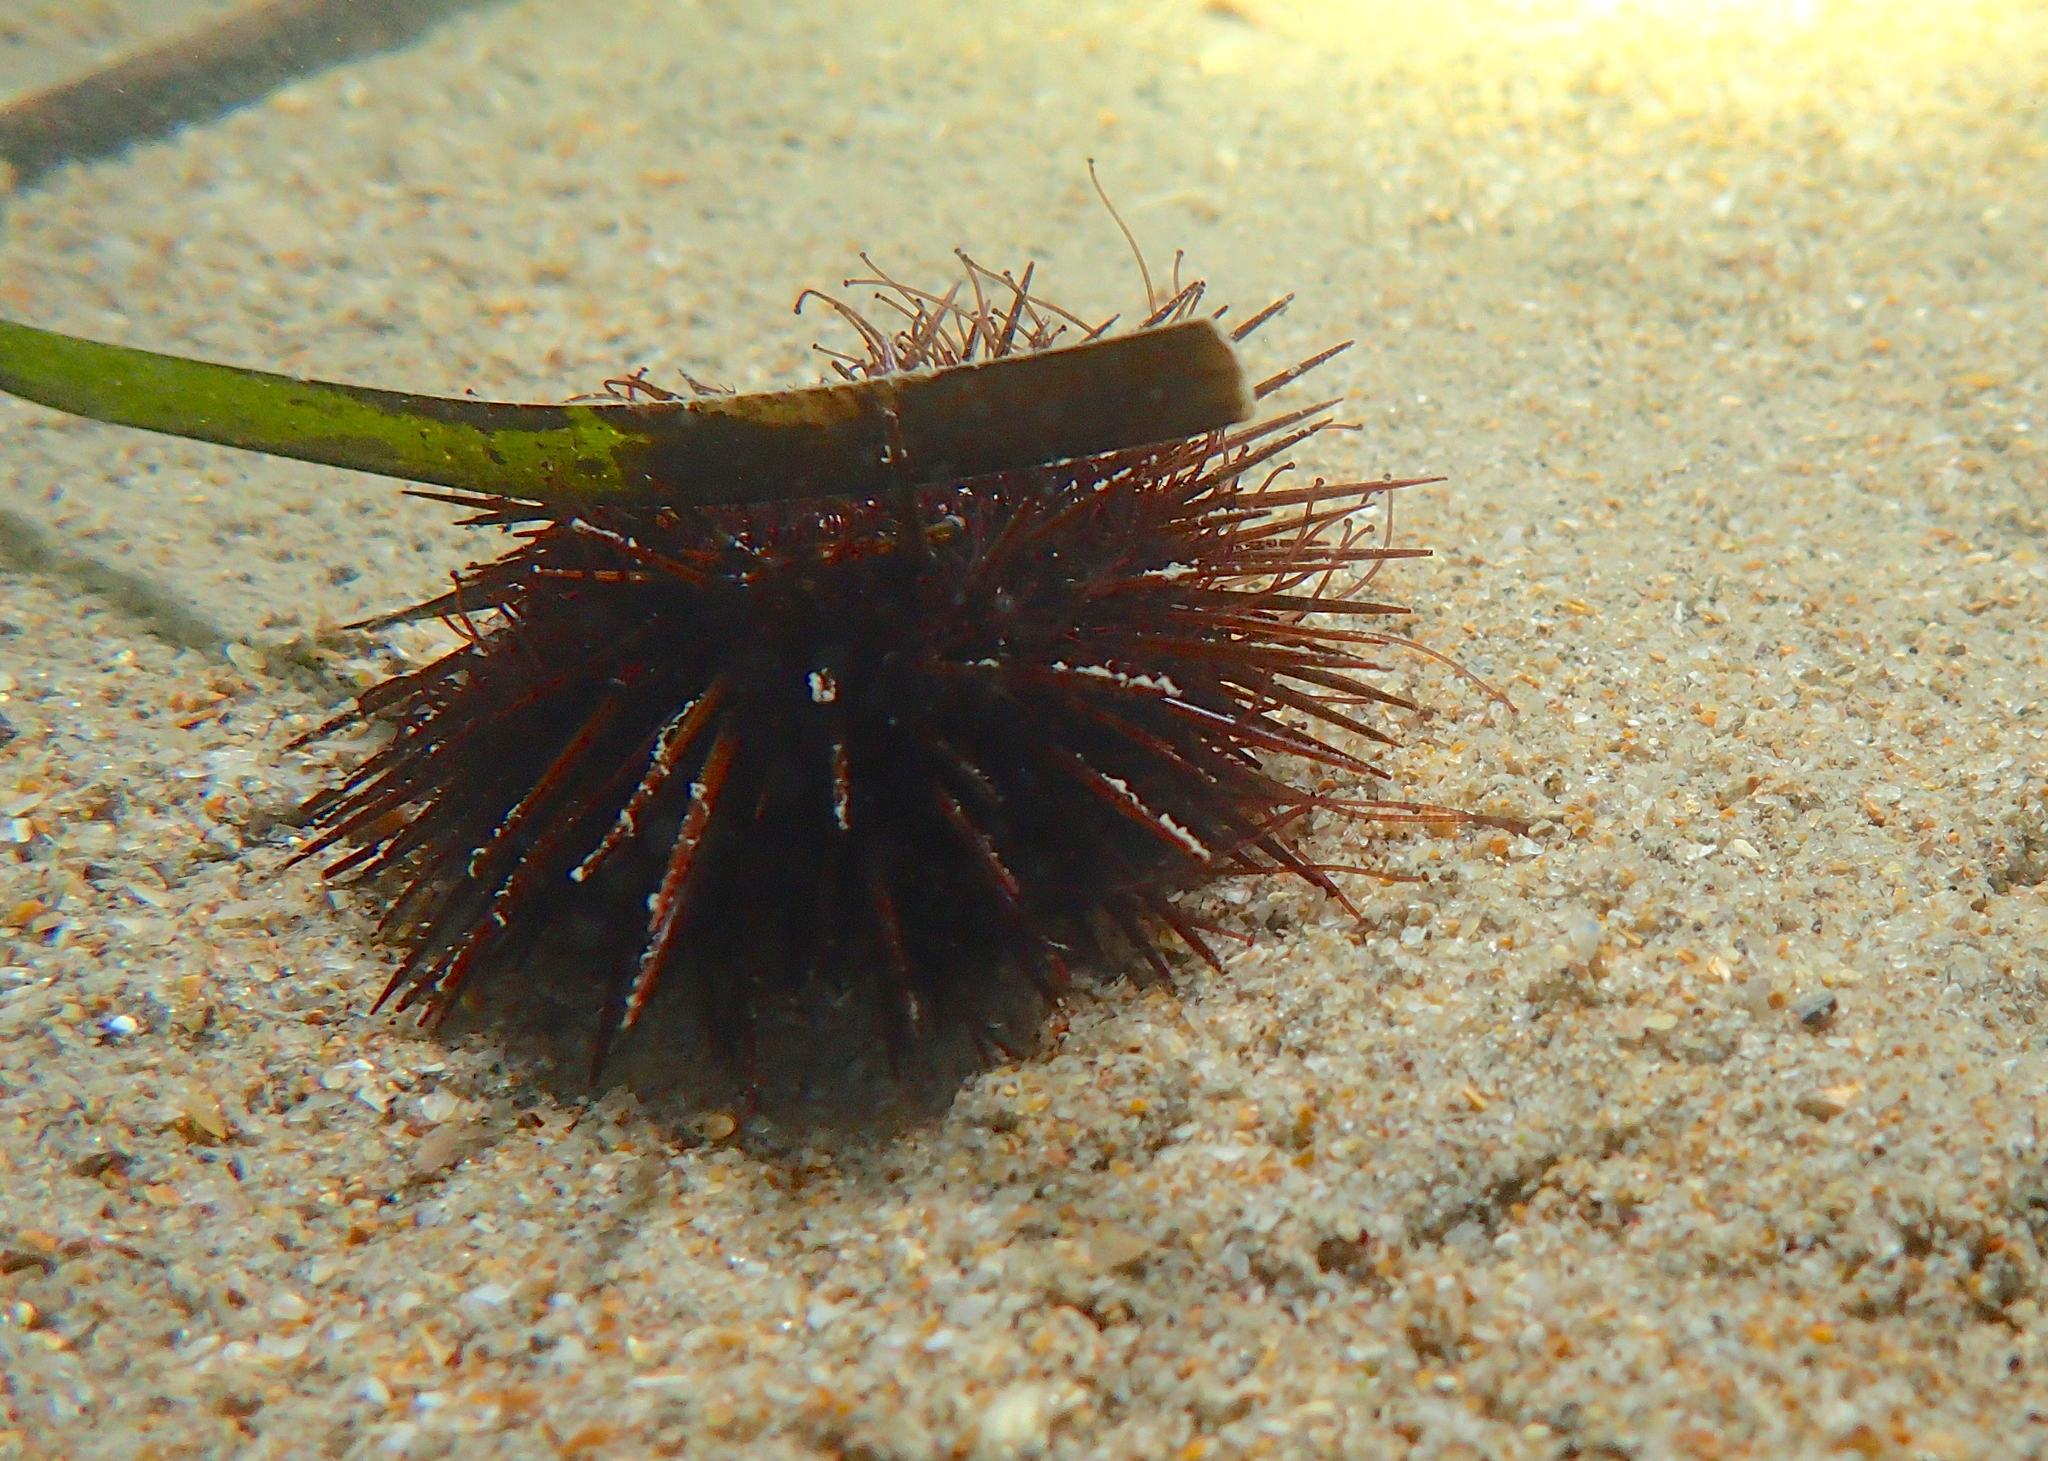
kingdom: Animalia
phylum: Echinodermata
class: Echinoidea
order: Camarodonta
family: Parechinidae
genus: Paracentrotus
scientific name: Paracentrotus lividus
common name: Purple sea urchin
